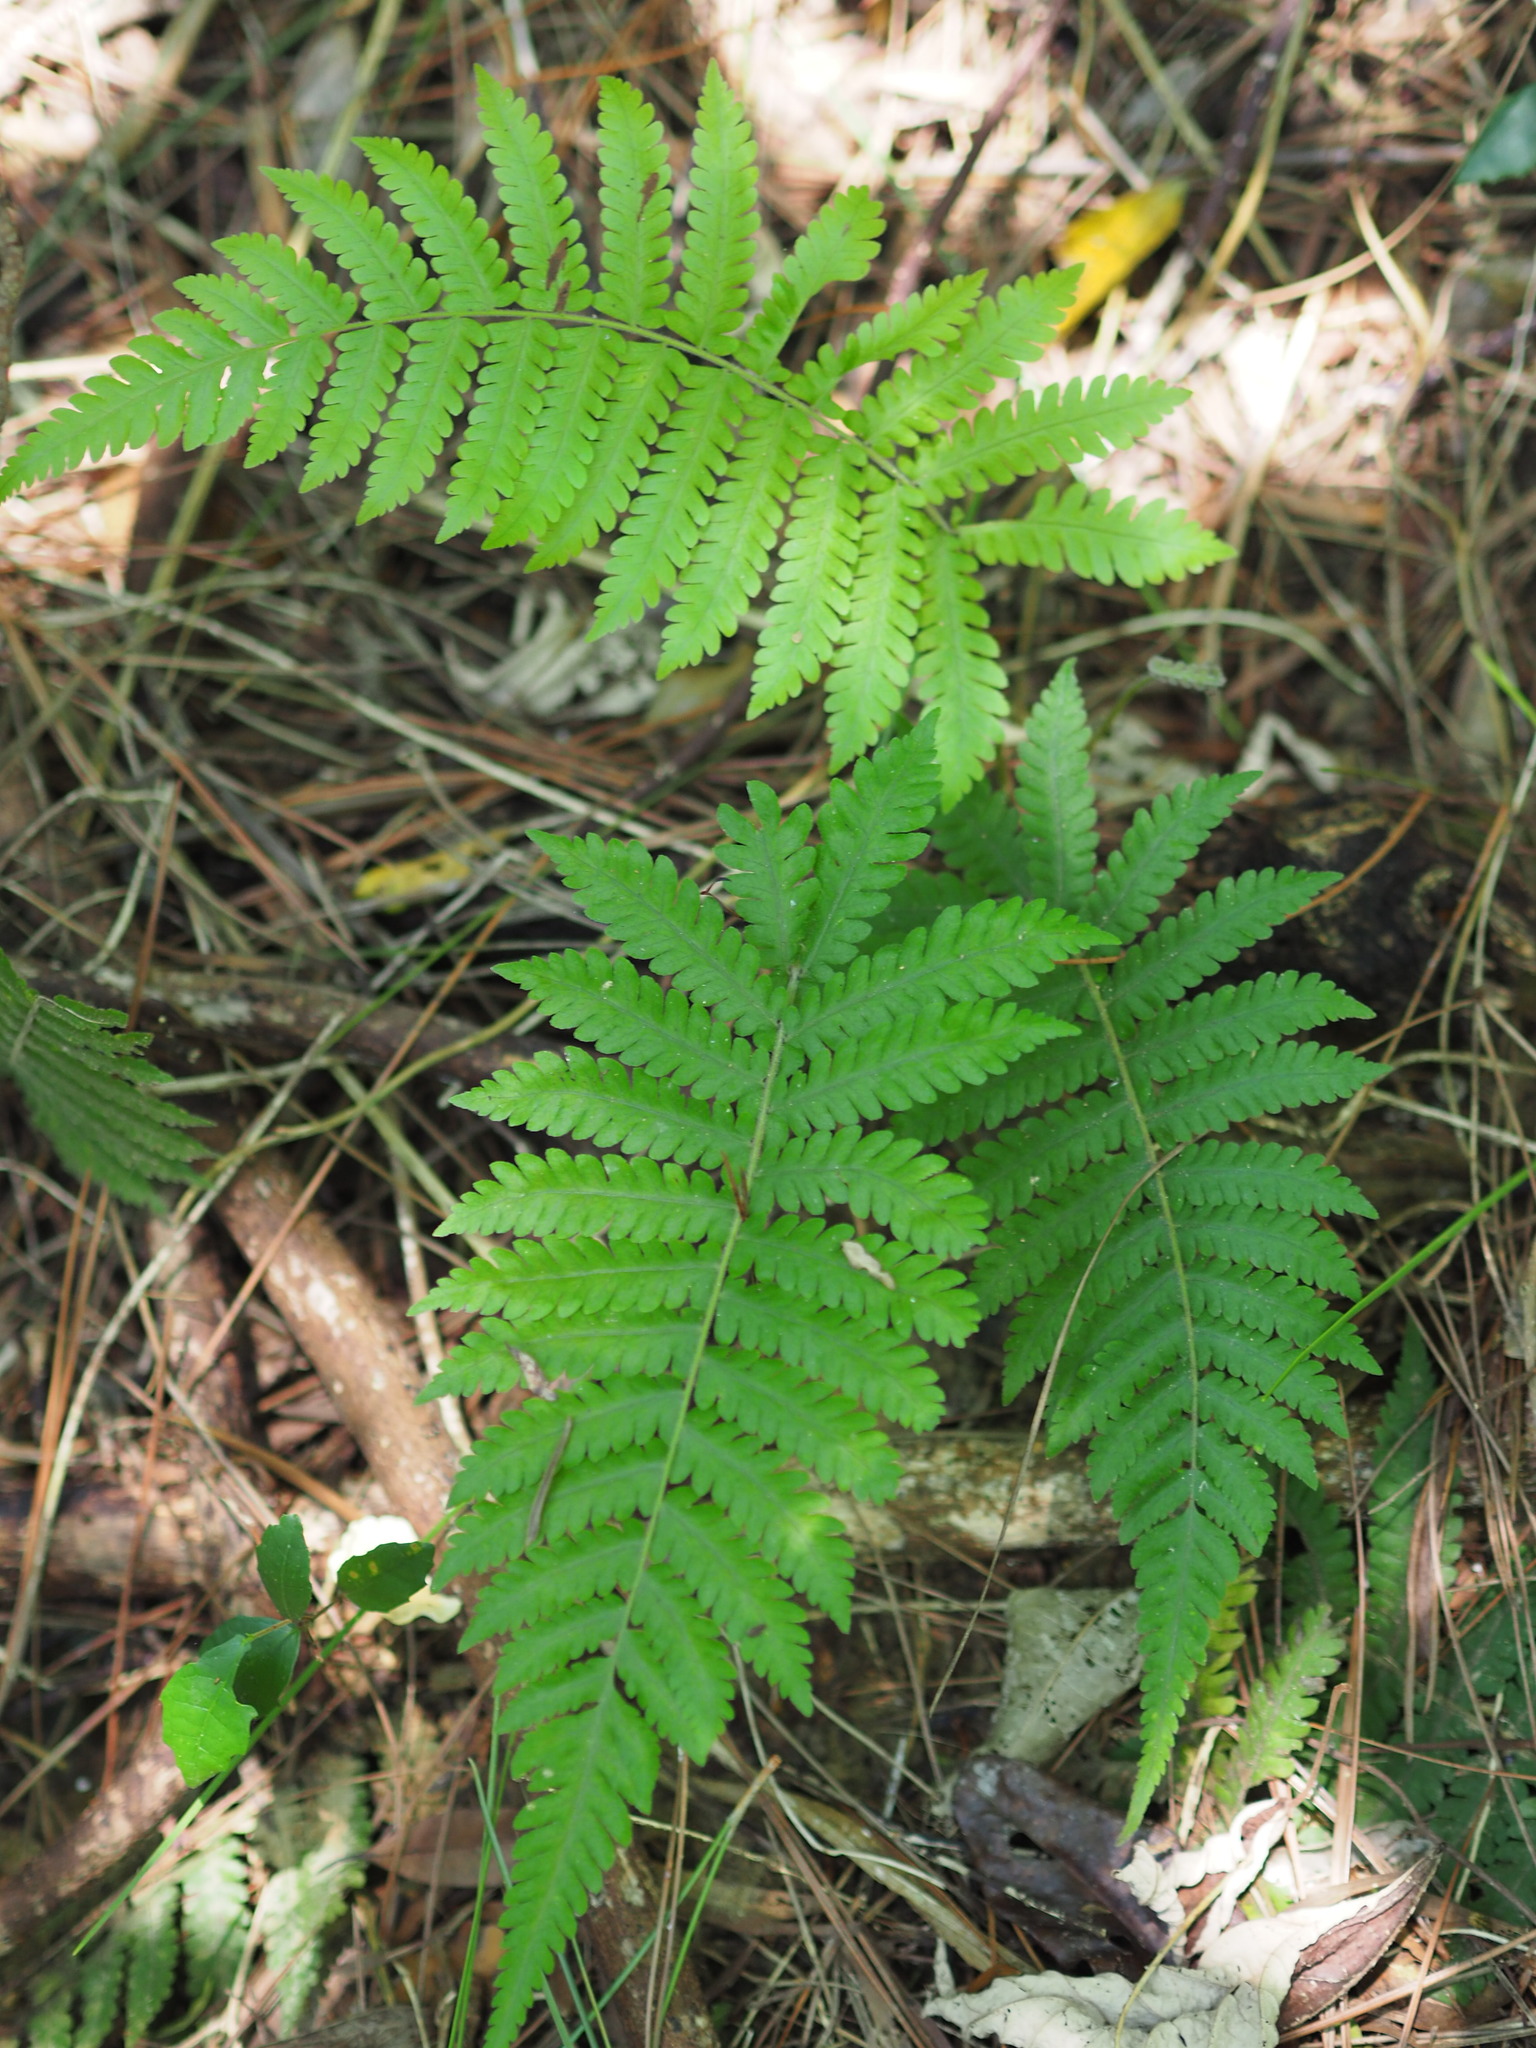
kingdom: Plantae
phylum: Tracheophyta
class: Polypodiopsida
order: Polypodiales
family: Thelypteridaceae
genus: Christella
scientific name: Christella parasitica
